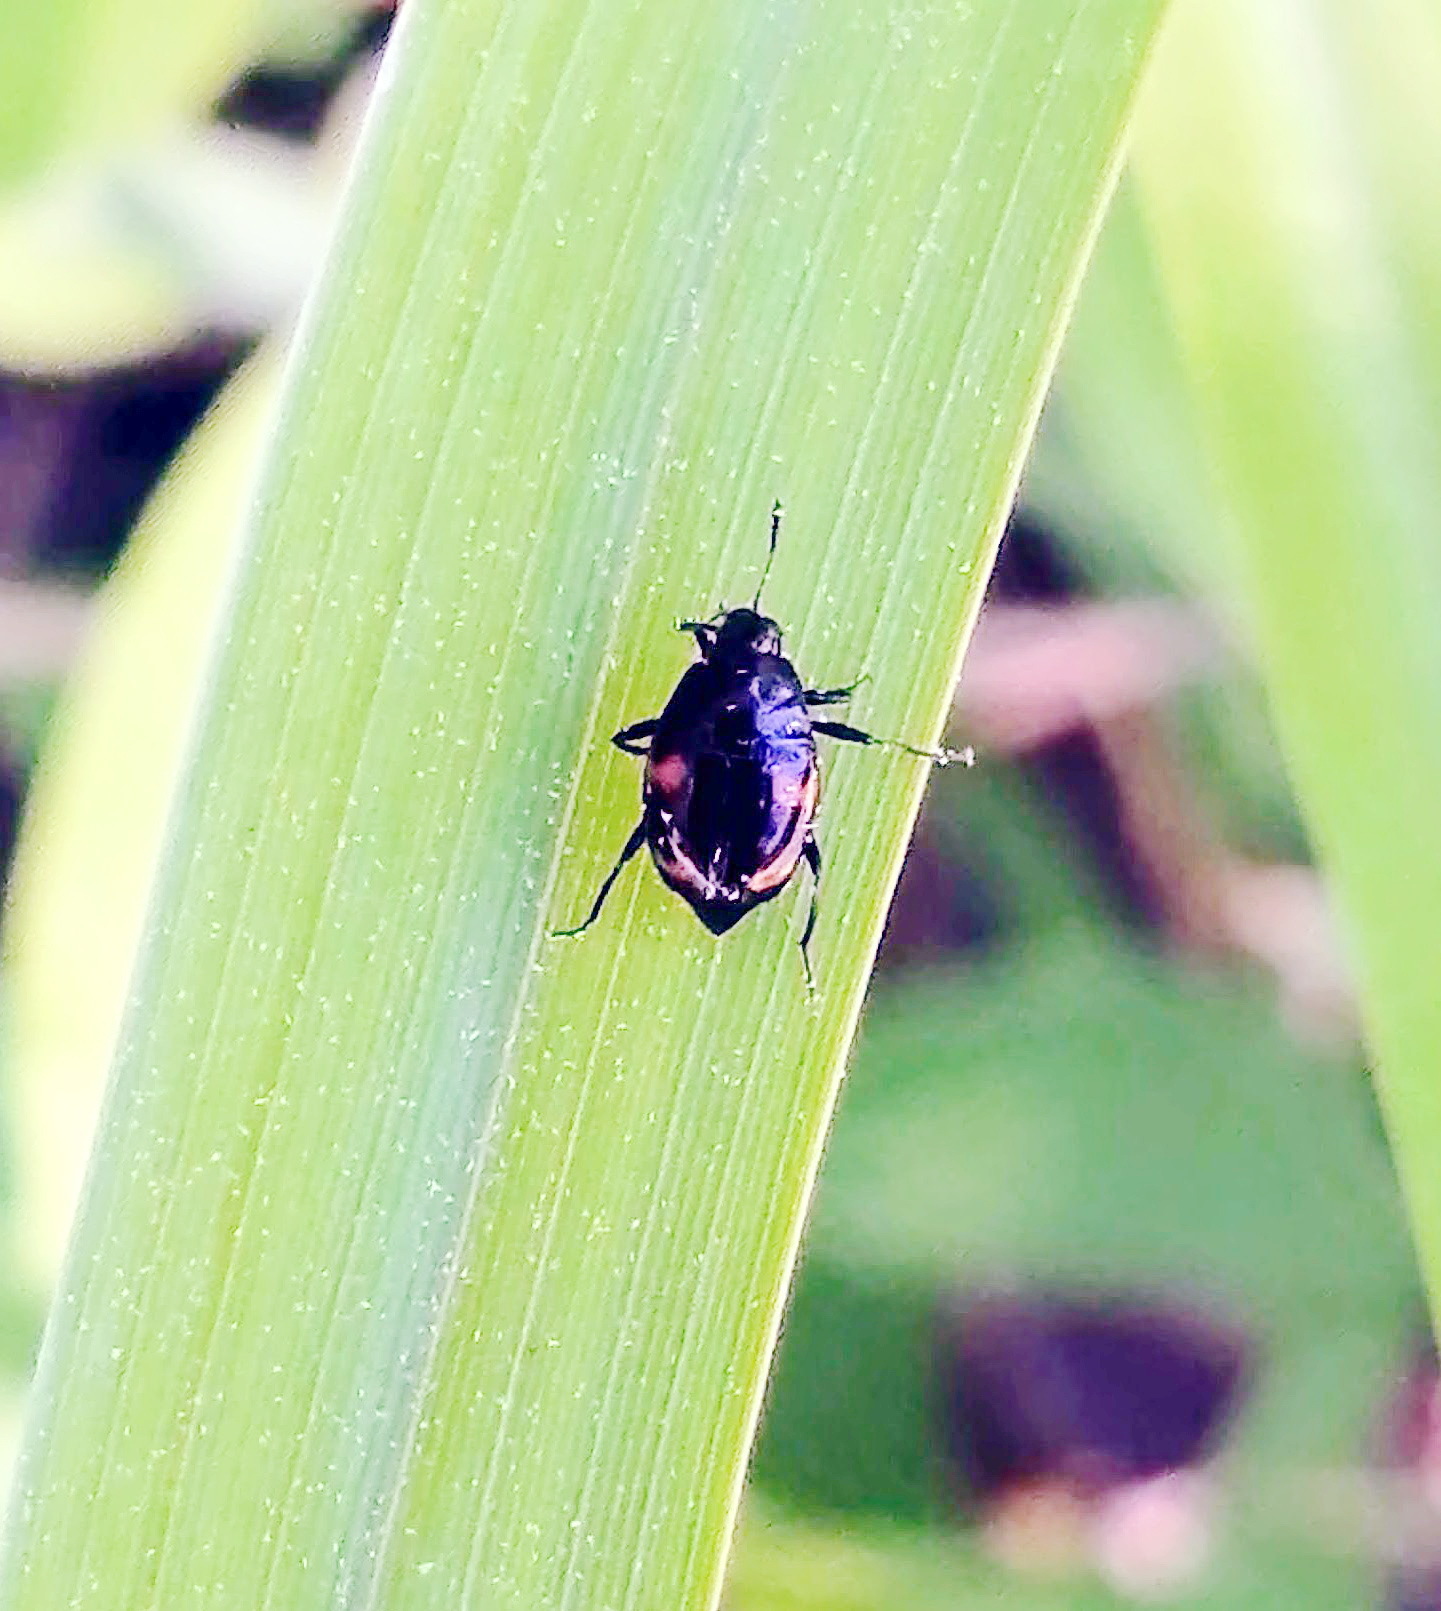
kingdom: Animalia
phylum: Arthropoda
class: Insecta
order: Coleoptera
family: Staphylinidae
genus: Scaphidium
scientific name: Scaphidium quadriguttatum
